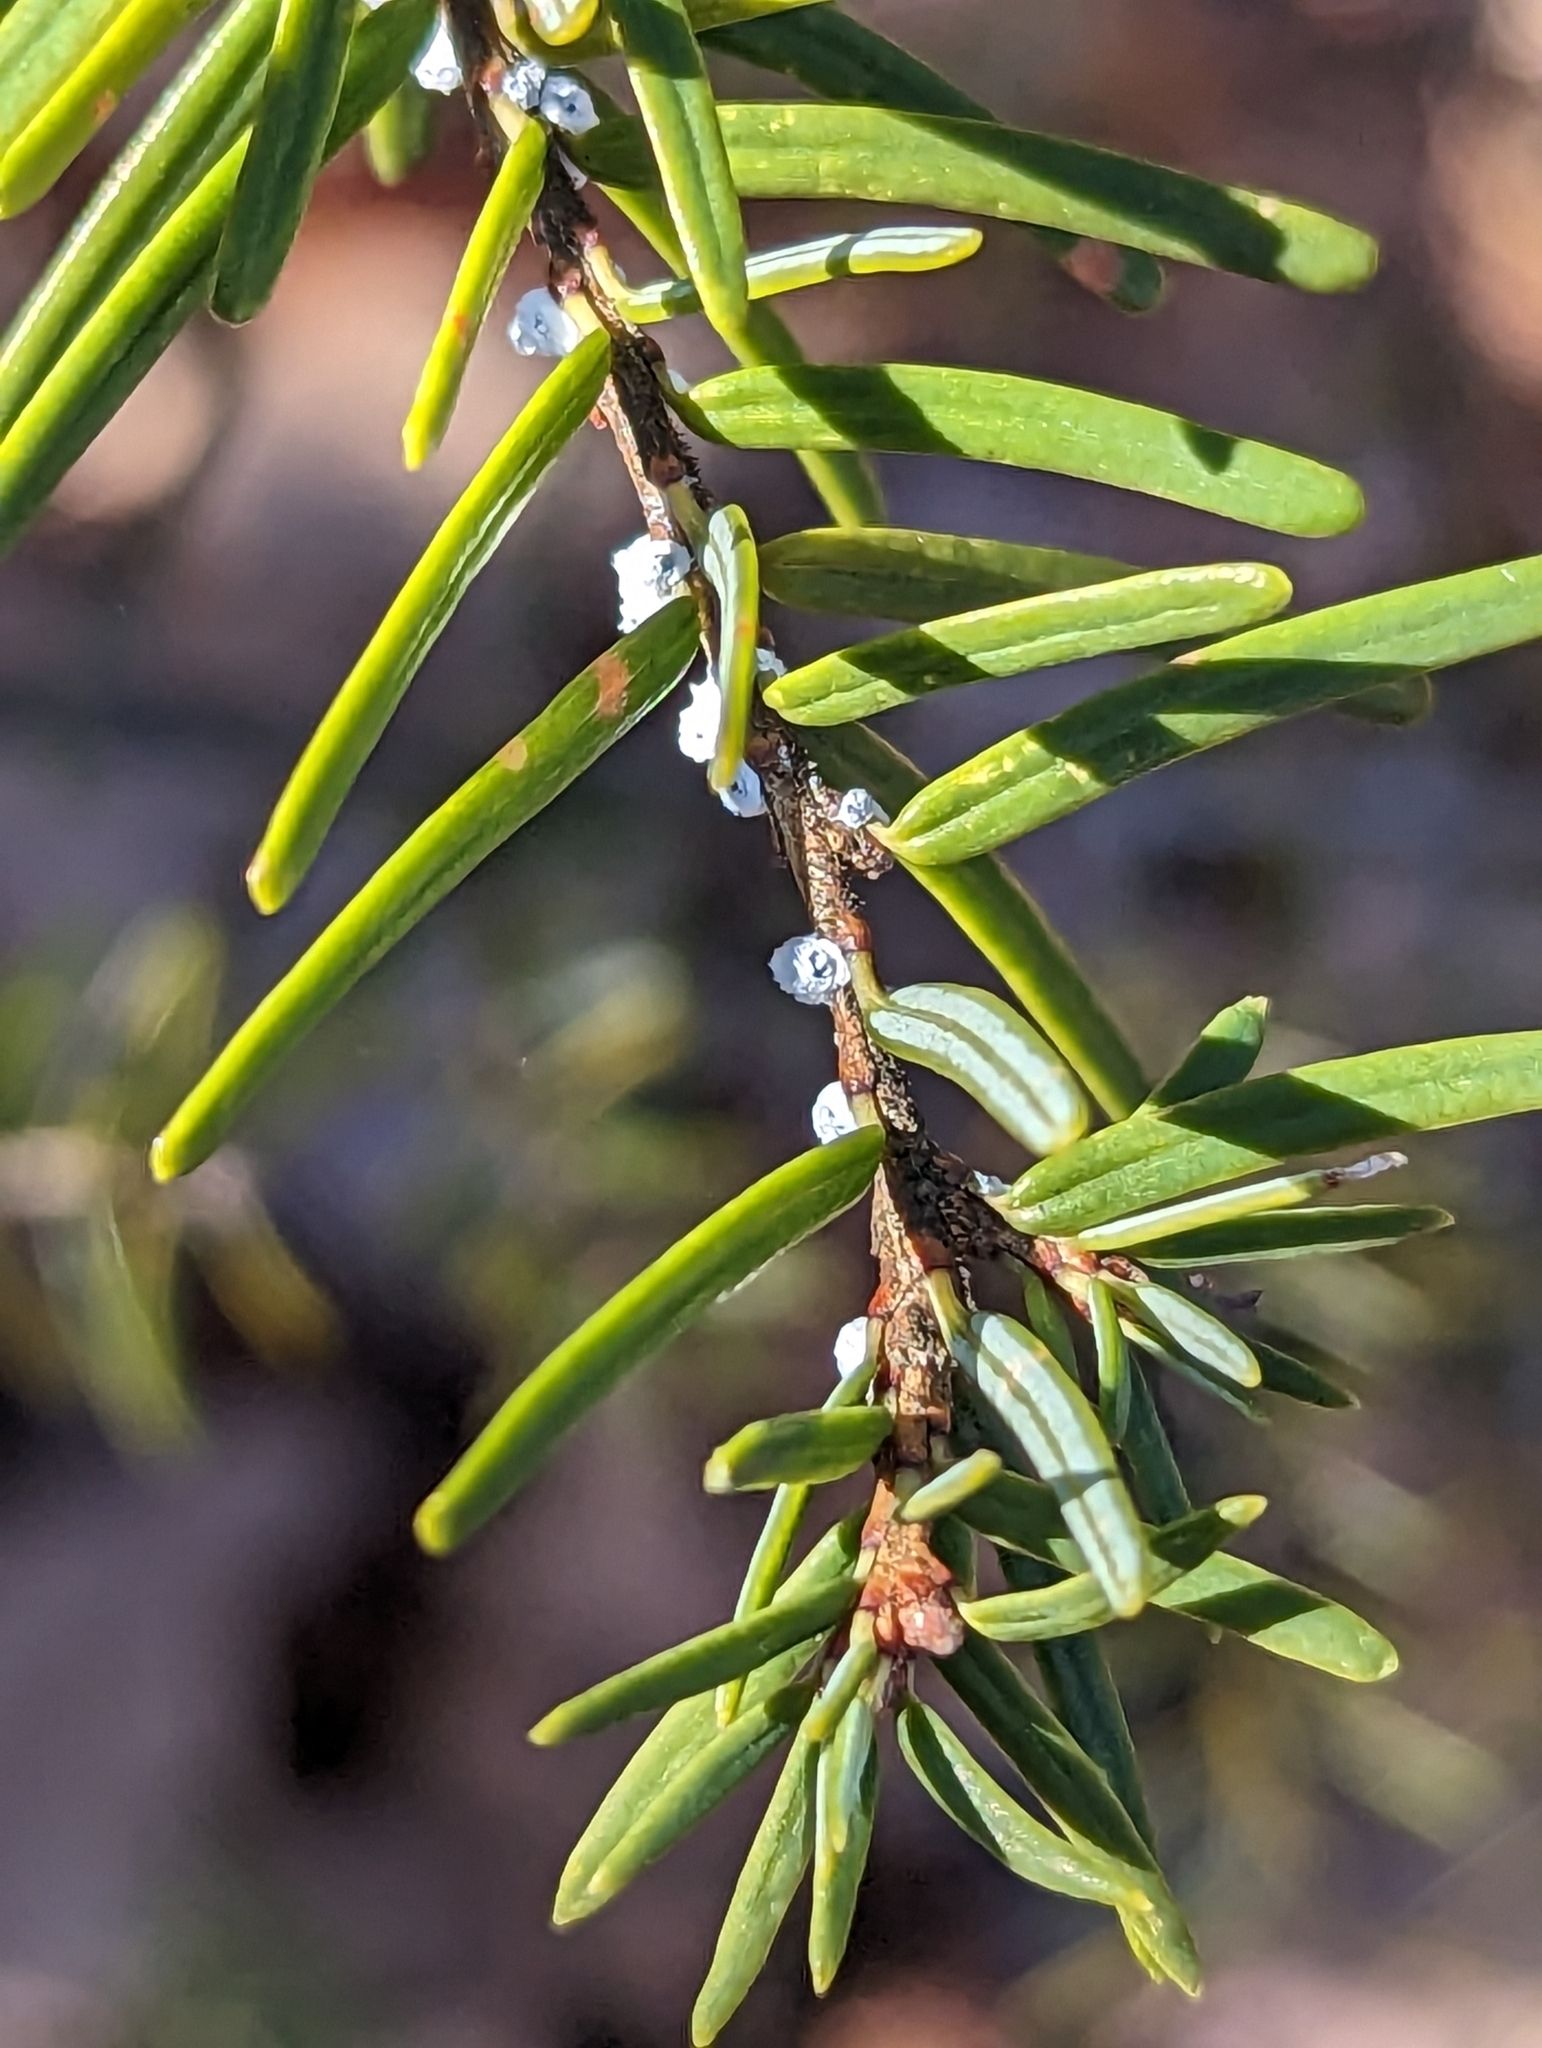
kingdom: Animalia
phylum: Arthropoda
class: Insecta
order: Hemiptera
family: Adelgidae
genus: Adelges
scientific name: Adelges tsugae
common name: Hemlock woolly adelgid
